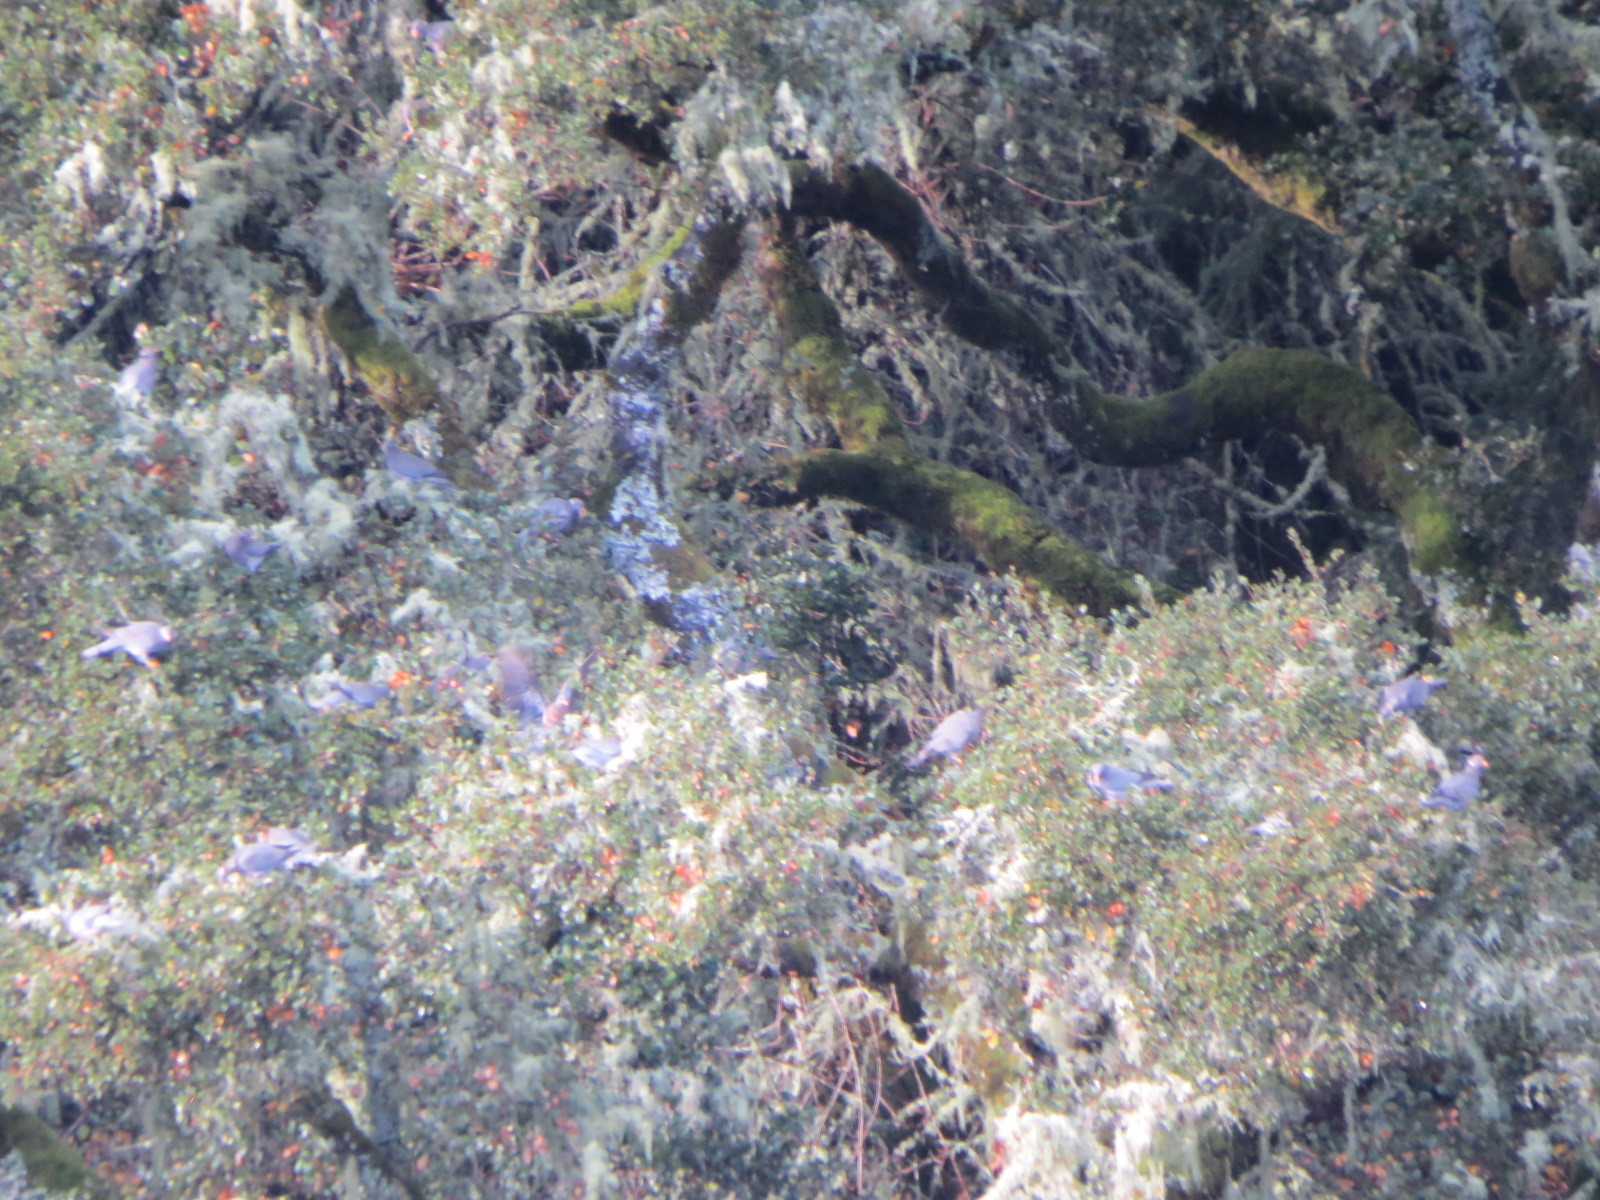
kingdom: Animalia
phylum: Chordata
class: Aves
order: Columbiformes
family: Columbidae
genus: Patagioenas
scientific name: Patagioenas fasciata
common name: Band-tailed pigeon
